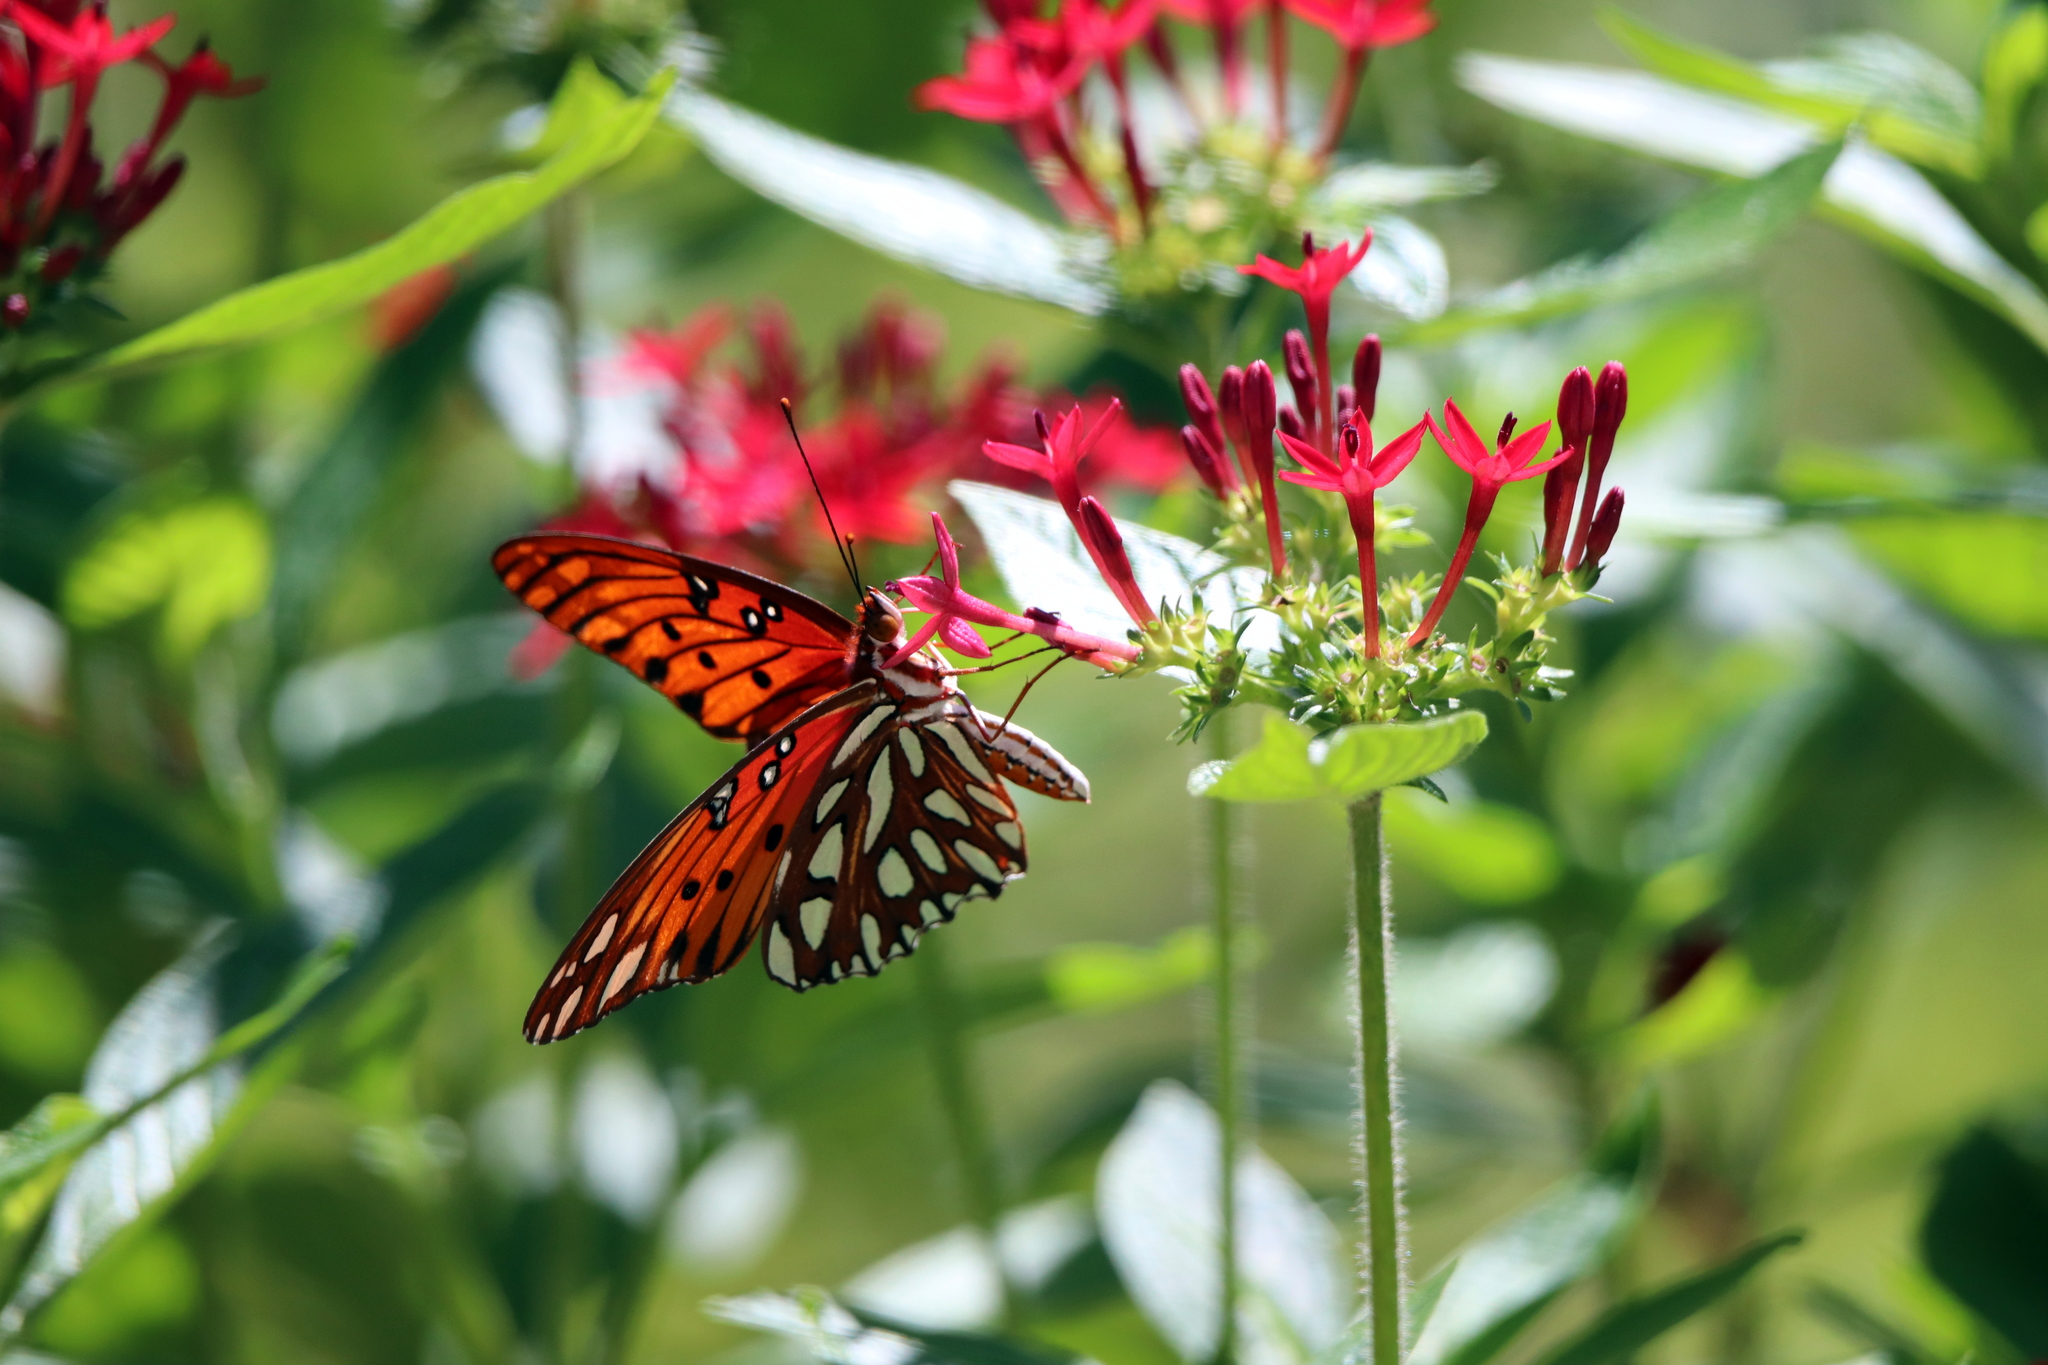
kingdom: Animalia
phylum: Arthropoda
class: Insecta
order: Lepidoptera
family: Nymphalidae
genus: Dione
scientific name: Dione vanillae
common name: Gulf fritillary
